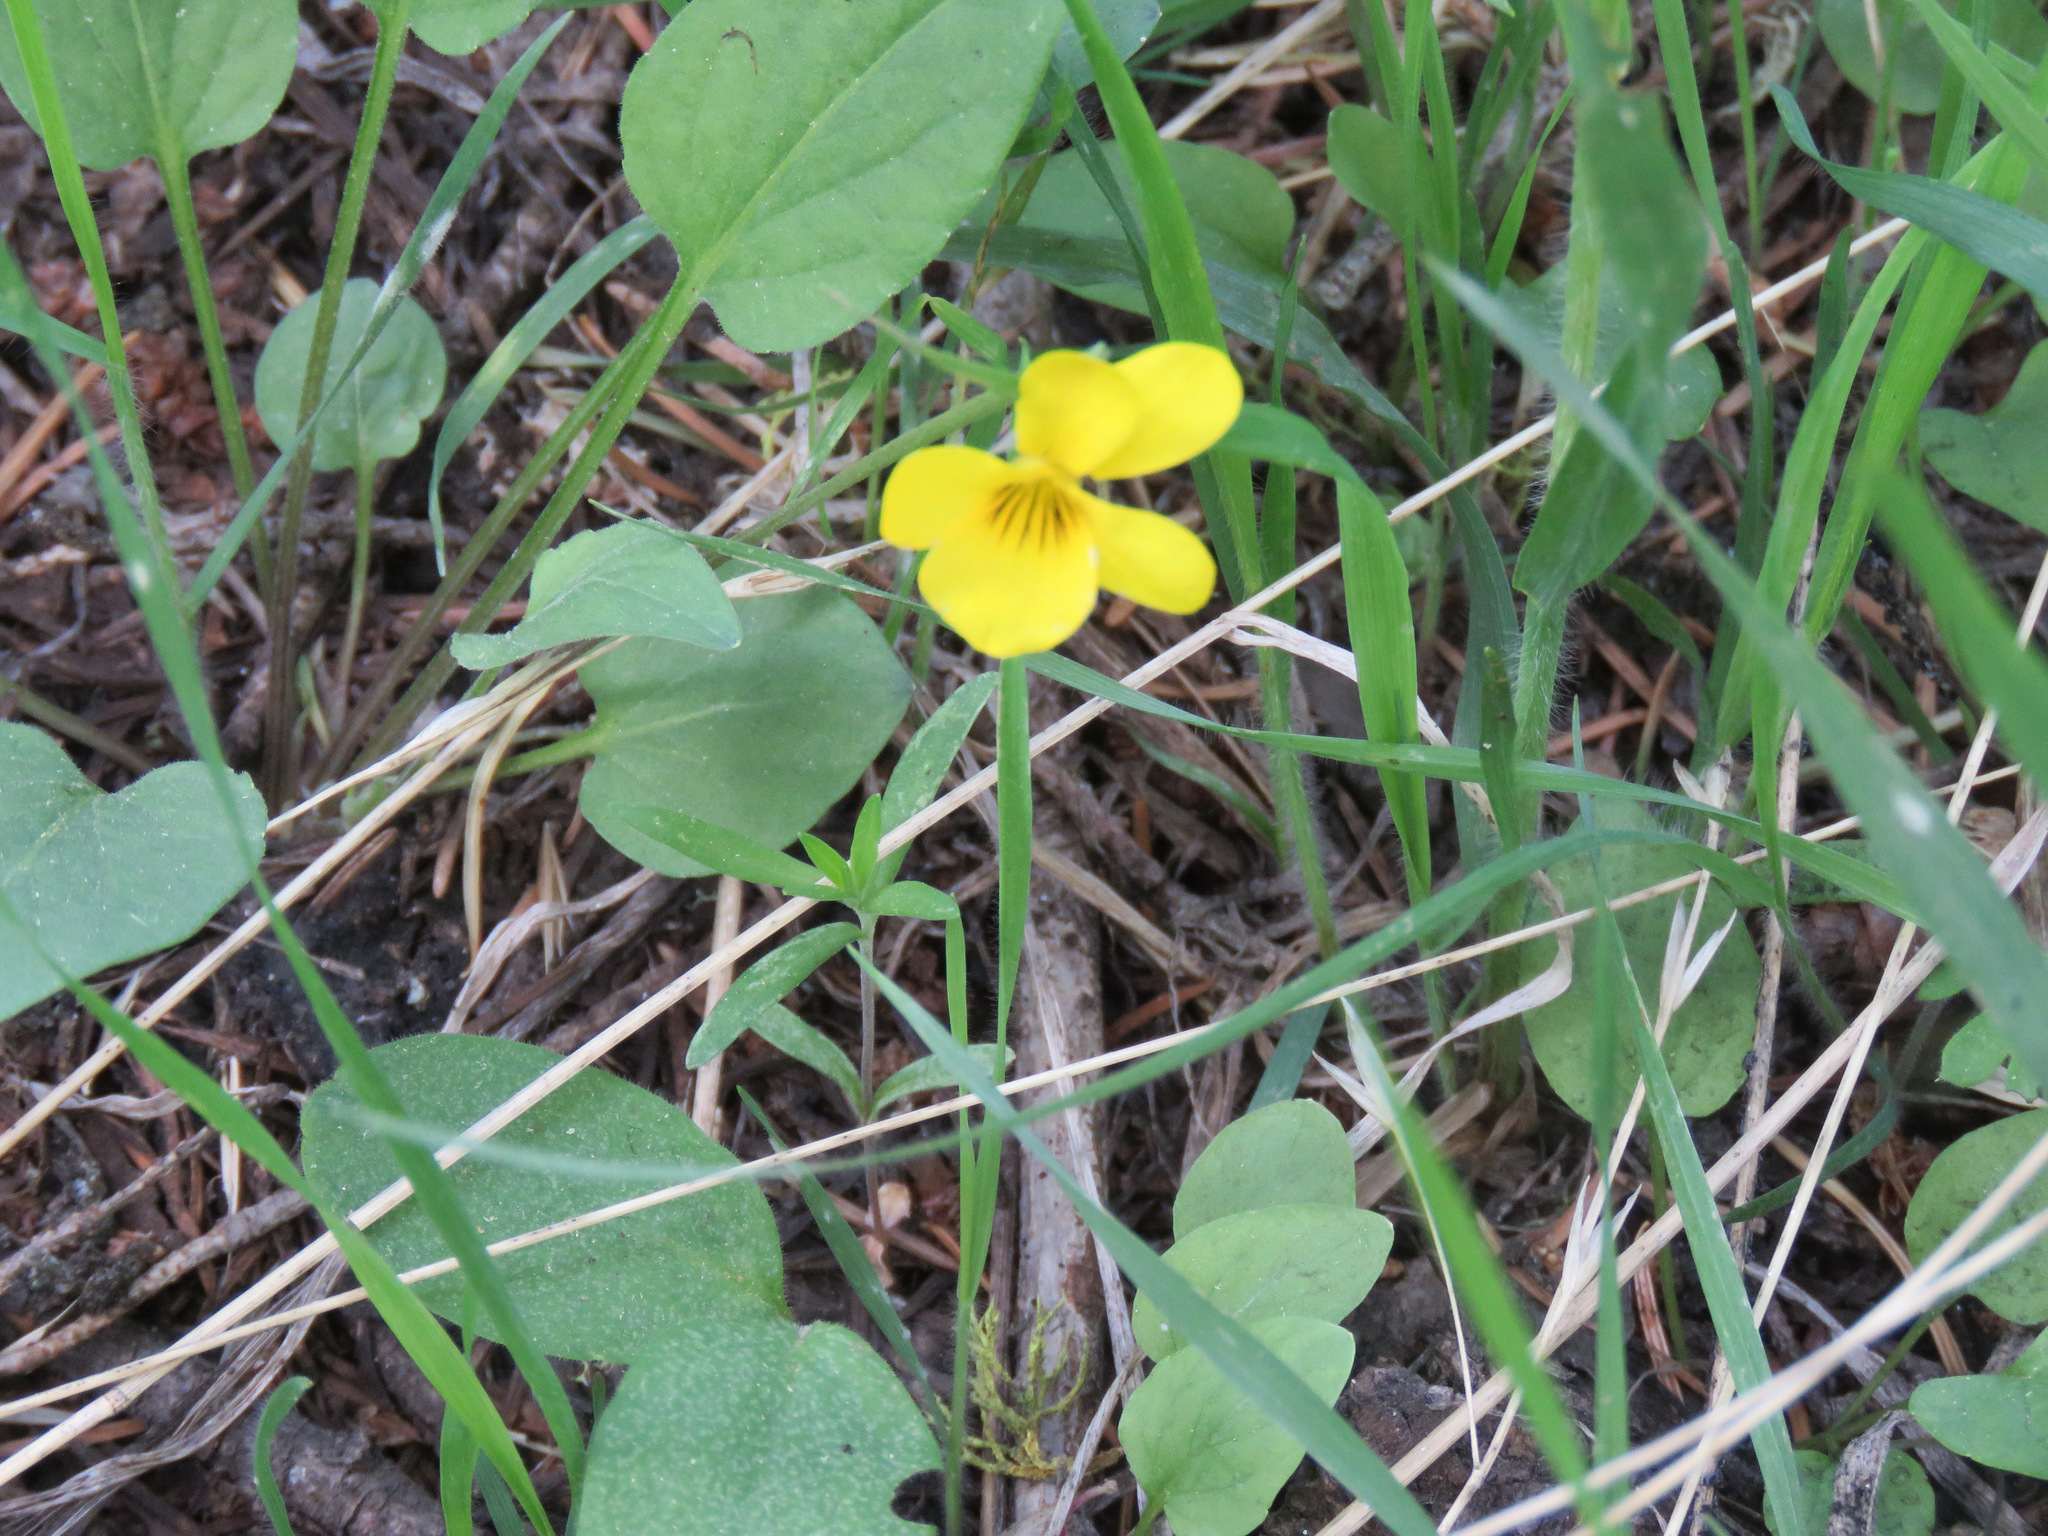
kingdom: Plantae
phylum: Tracheophyta
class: Magnoliopsida
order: Malpighiales
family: Violaceae
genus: Viola
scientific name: Viola vallicola
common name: Valley violet
